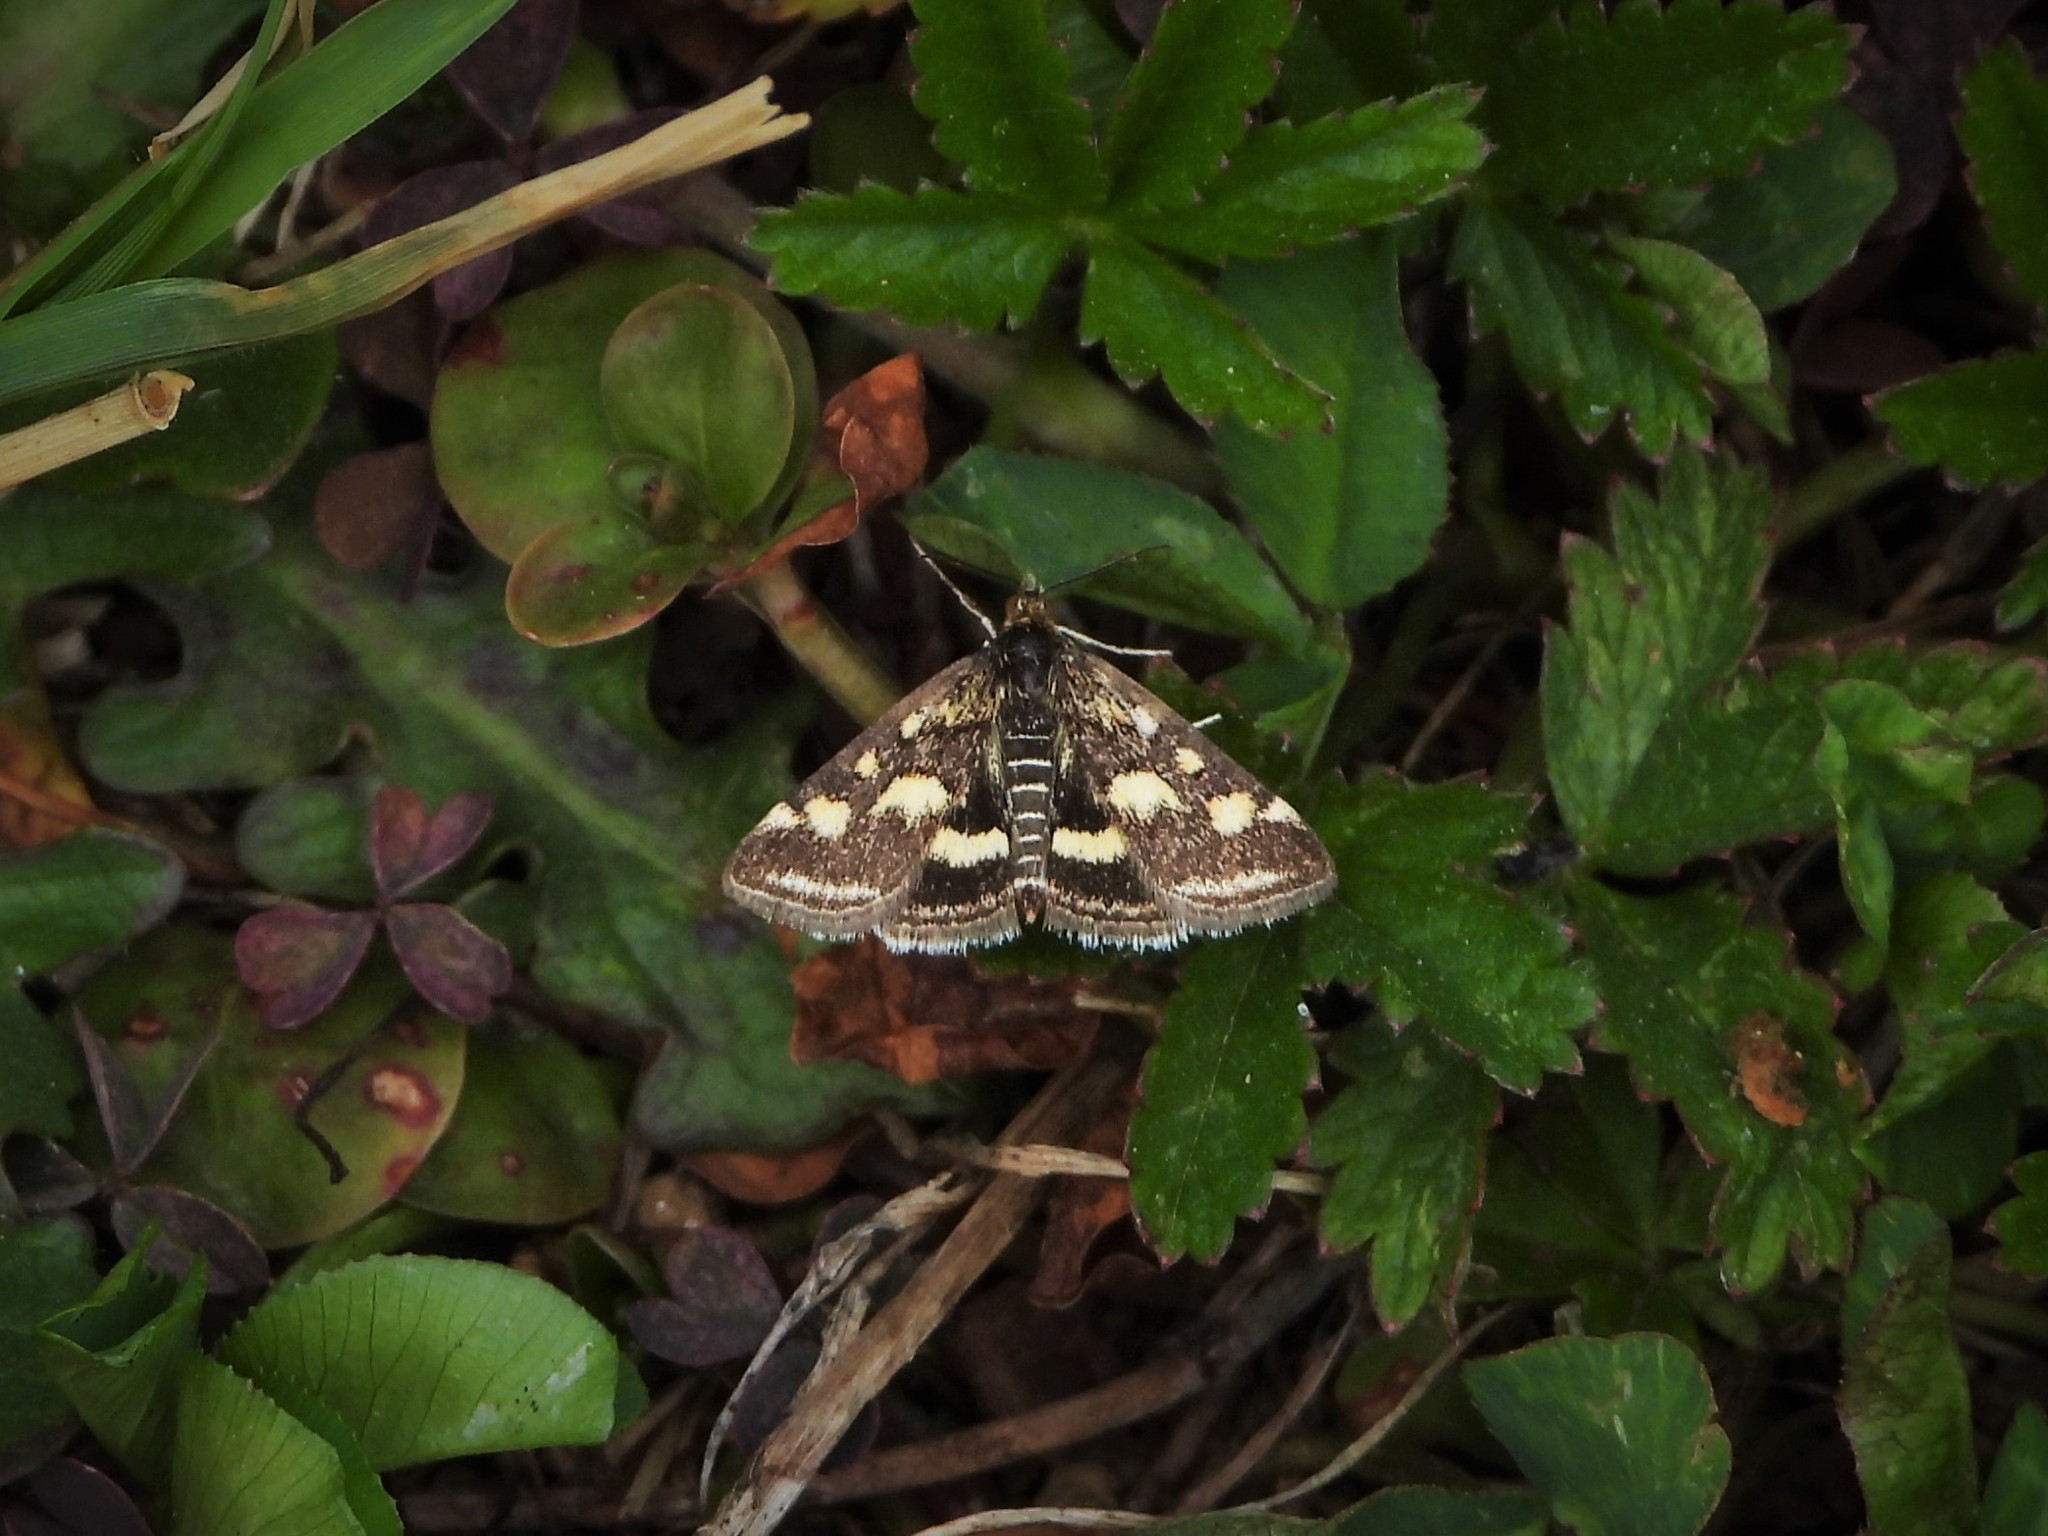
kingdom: Animalia
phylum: Arthropoda
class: Insecta
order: Lepidoptera
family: Crambidae
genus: Pyrausta
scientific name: Pyrausta purpuralis
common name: Common purple & gold
